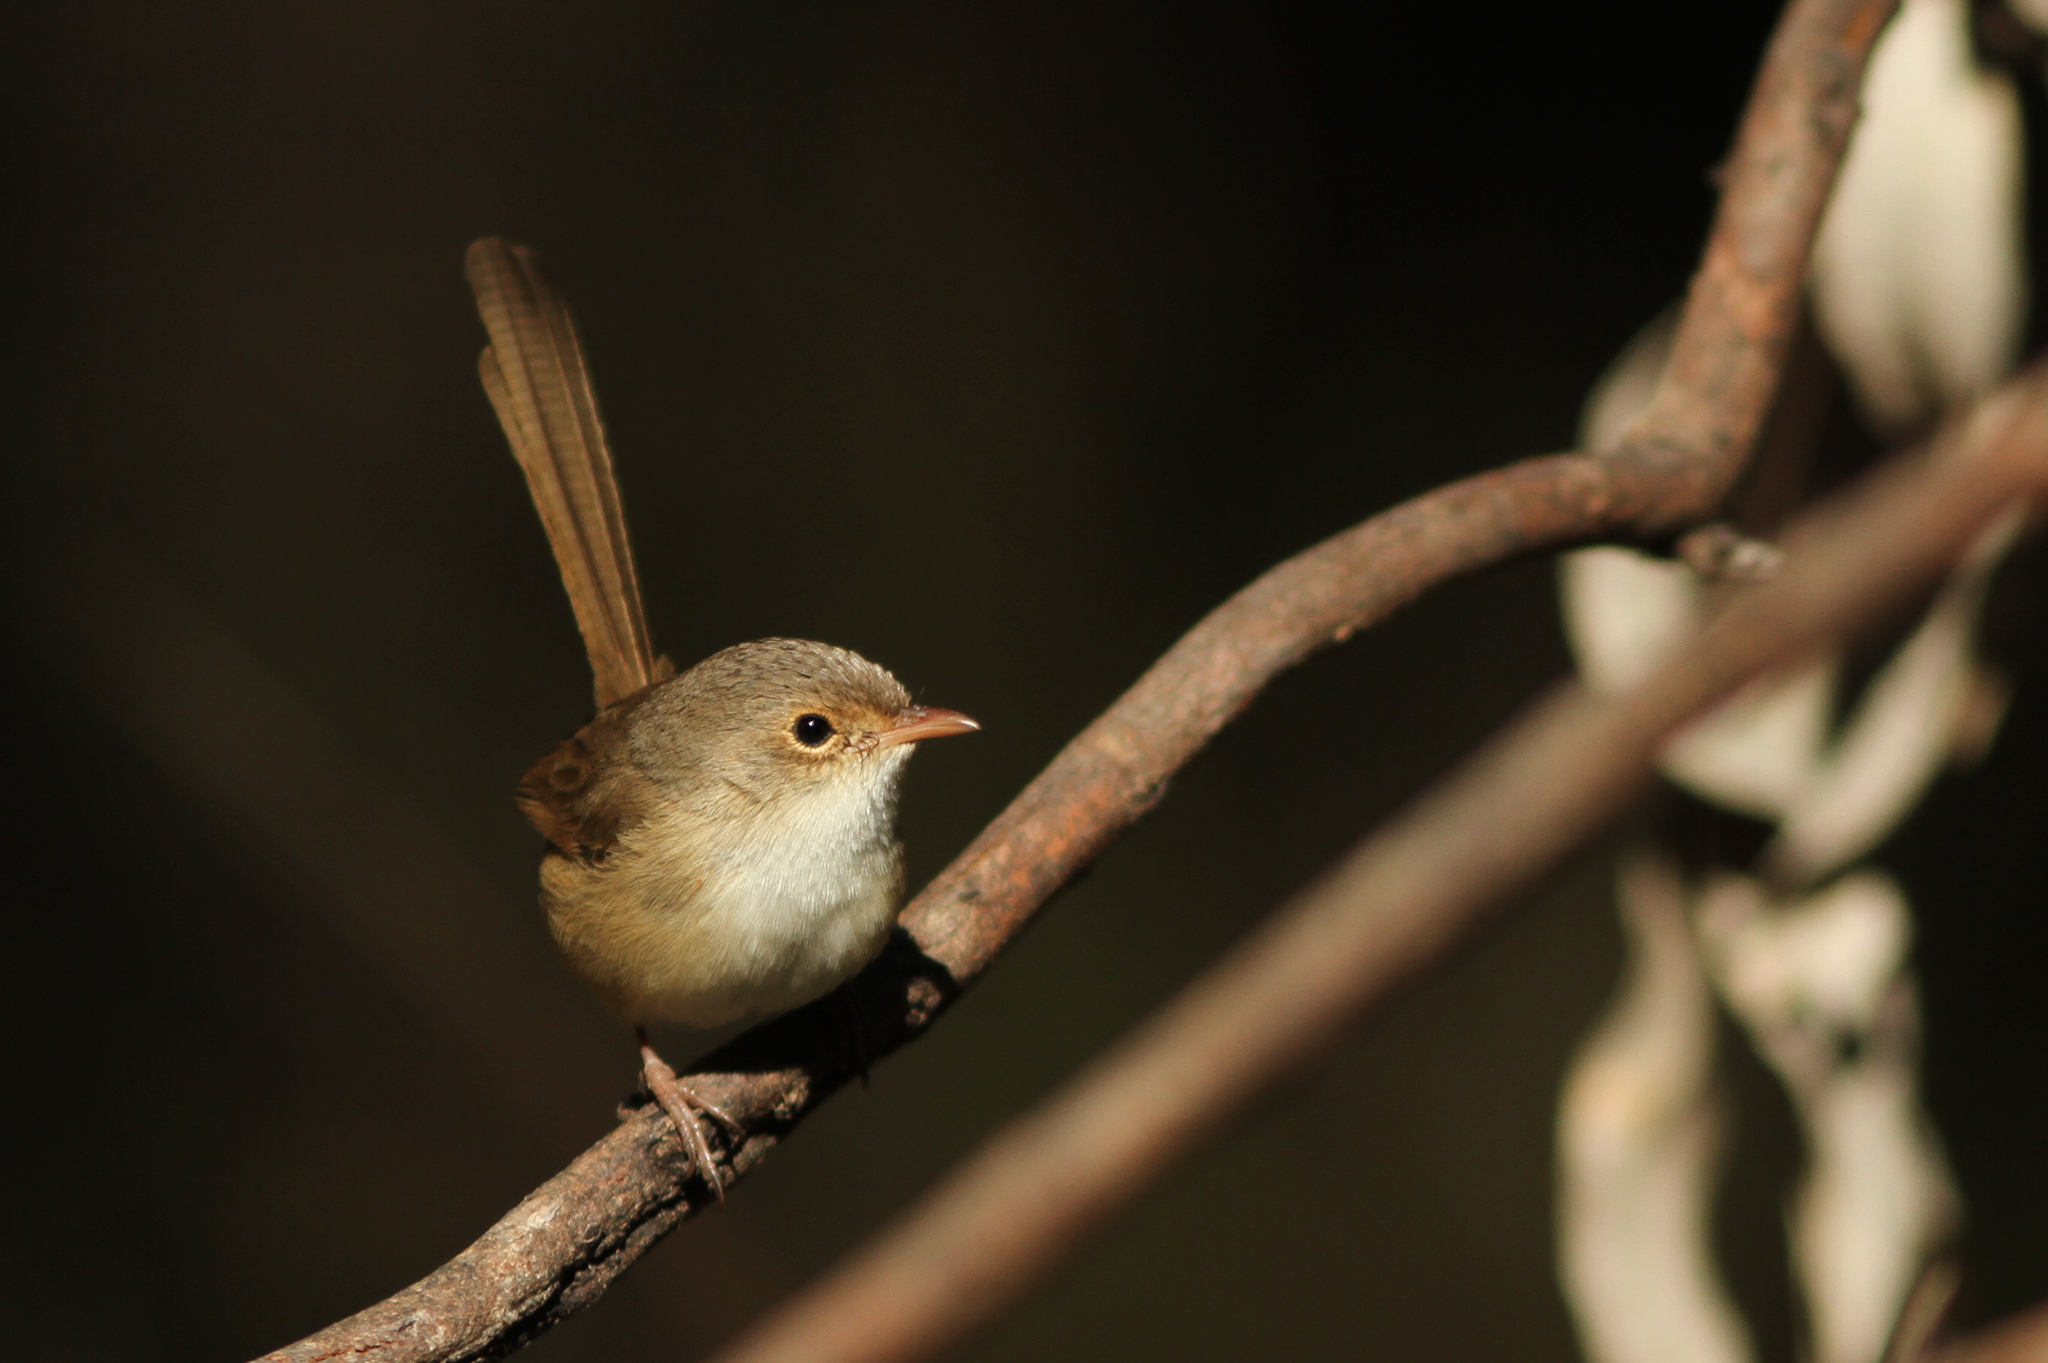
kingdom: Animalia
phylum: Chordata
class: Aves
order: Passeriformes
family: Maluridae
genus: Malurus
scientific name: Malurus melanocephalus
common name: Red-backed fairywren
